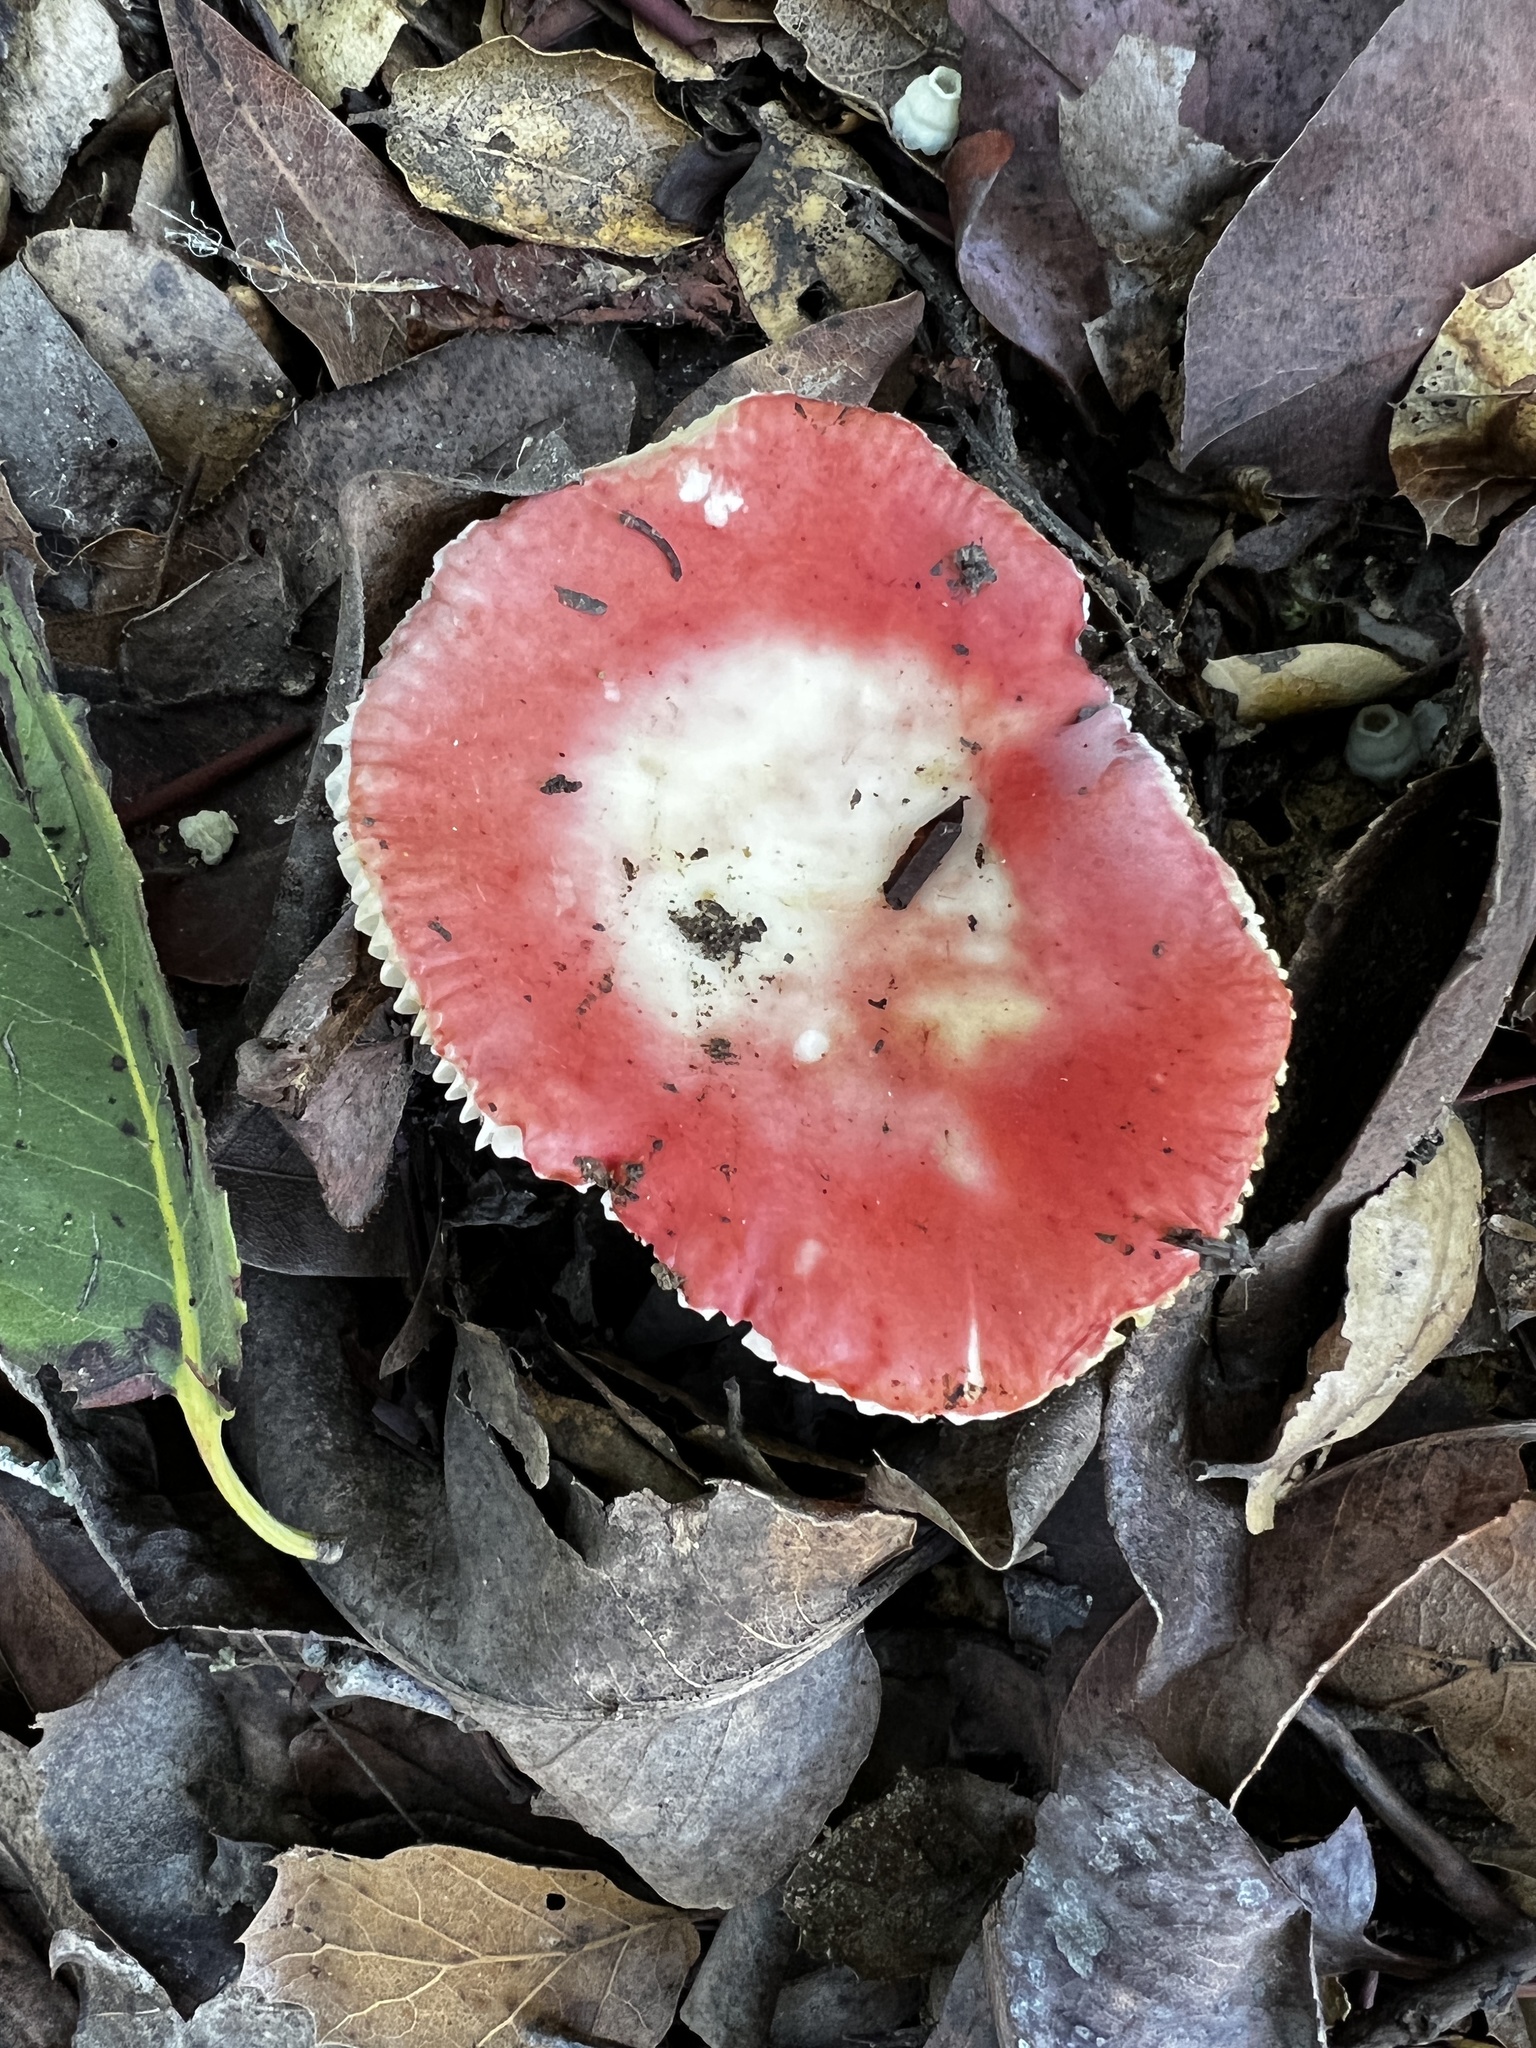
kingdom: Fungi
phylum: Basidiomycota
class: Agaricomycetes
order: Russulales
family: Russulaceae
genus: Russula
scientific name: Russula cremoricolor
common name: Winter russula
